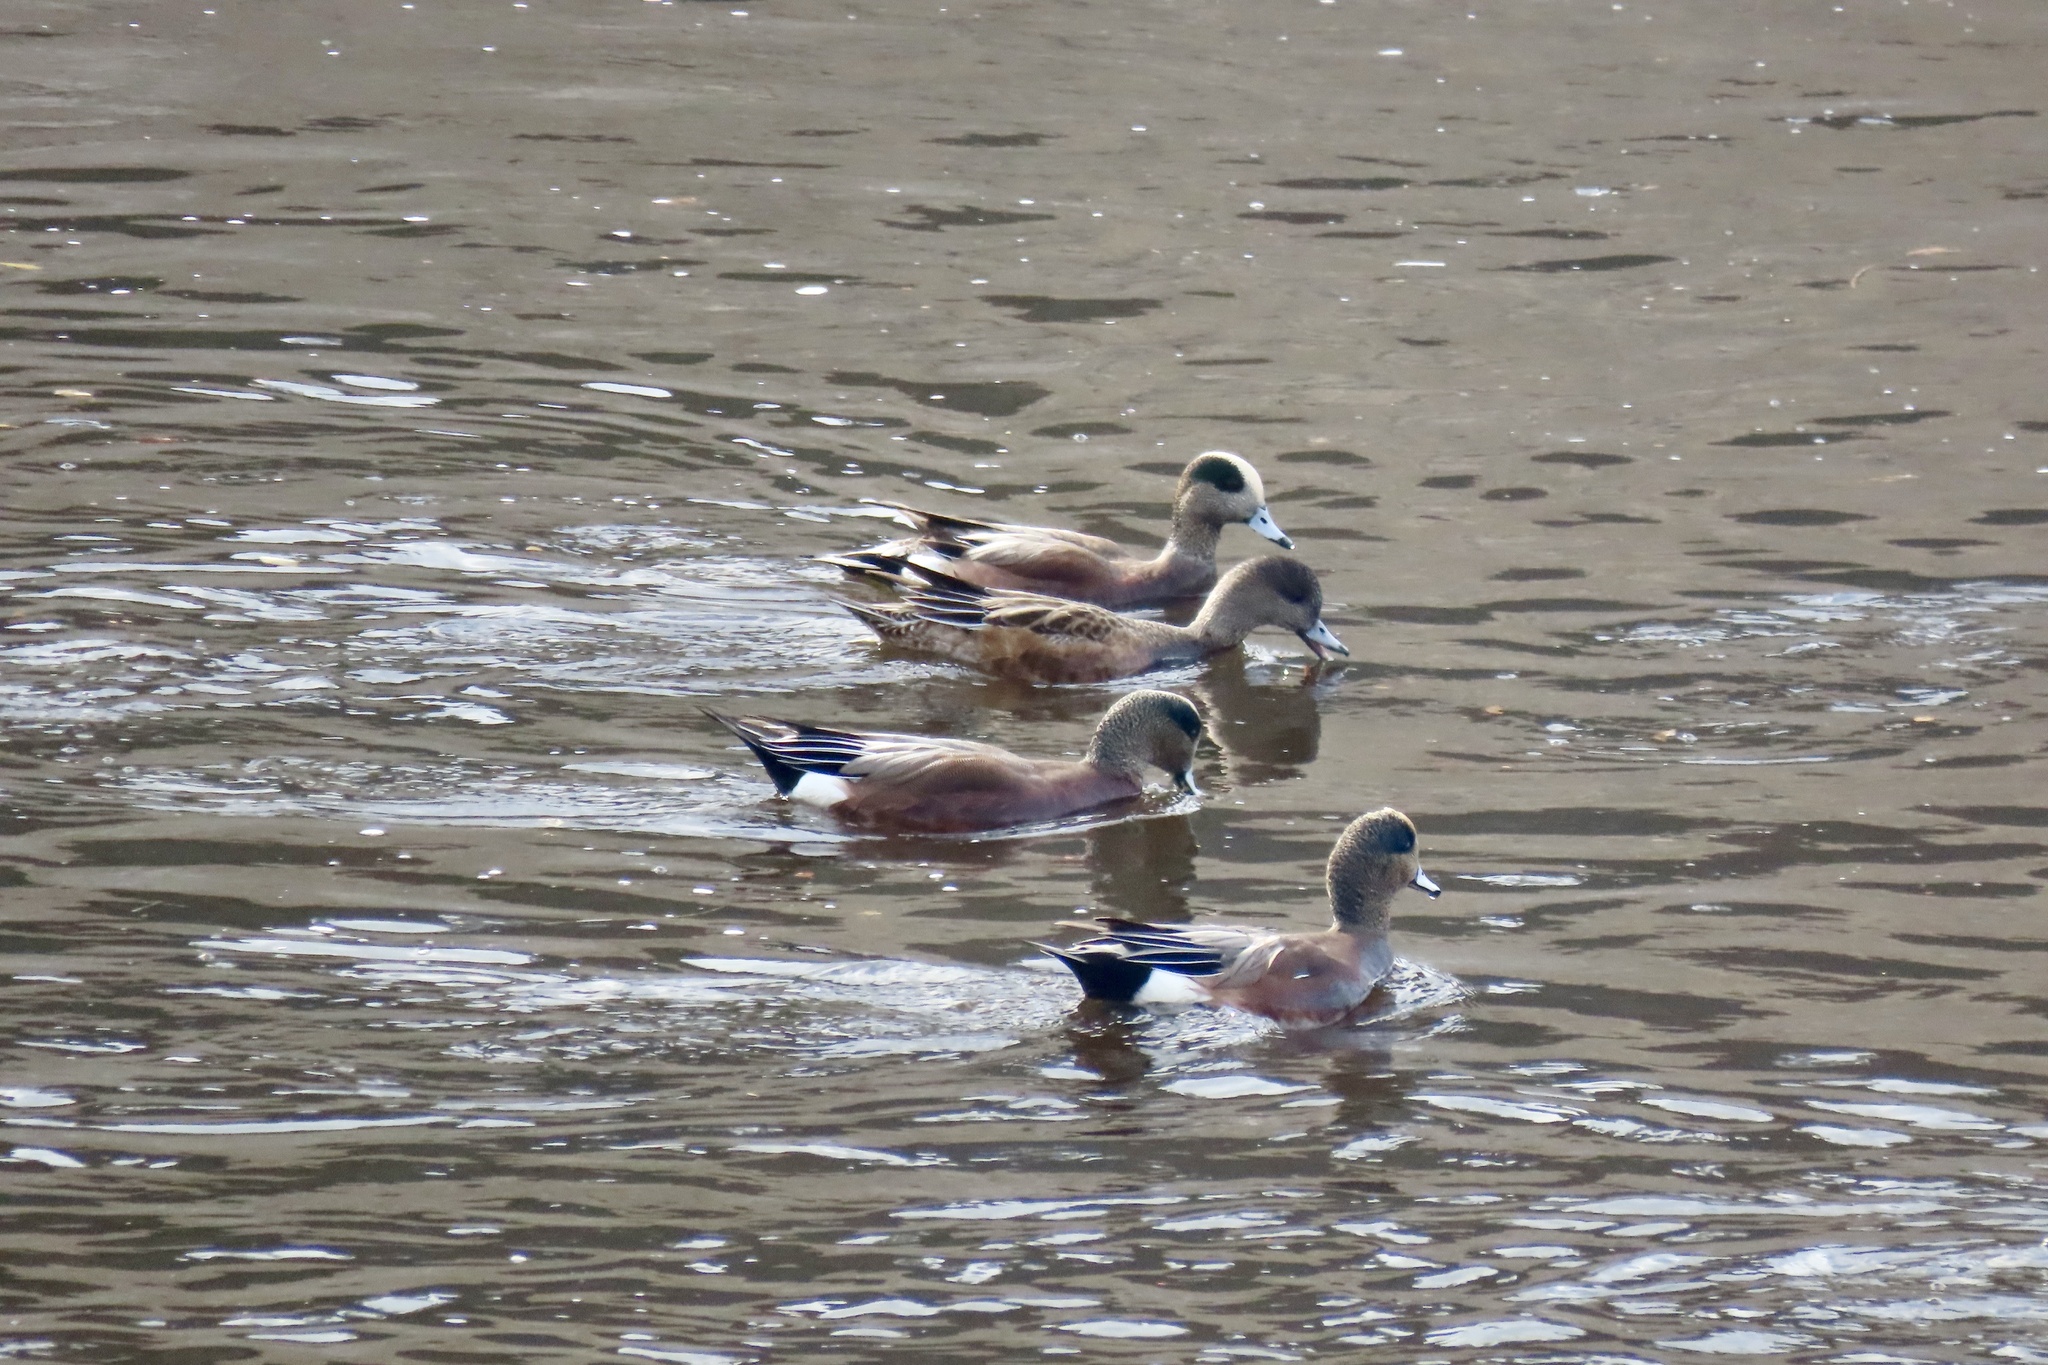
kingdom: Animalia
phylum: Chordata
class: Aves
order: Anseriformes
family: Anatidae
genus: Mareca
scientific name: Mareca americana
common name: American wigeon
